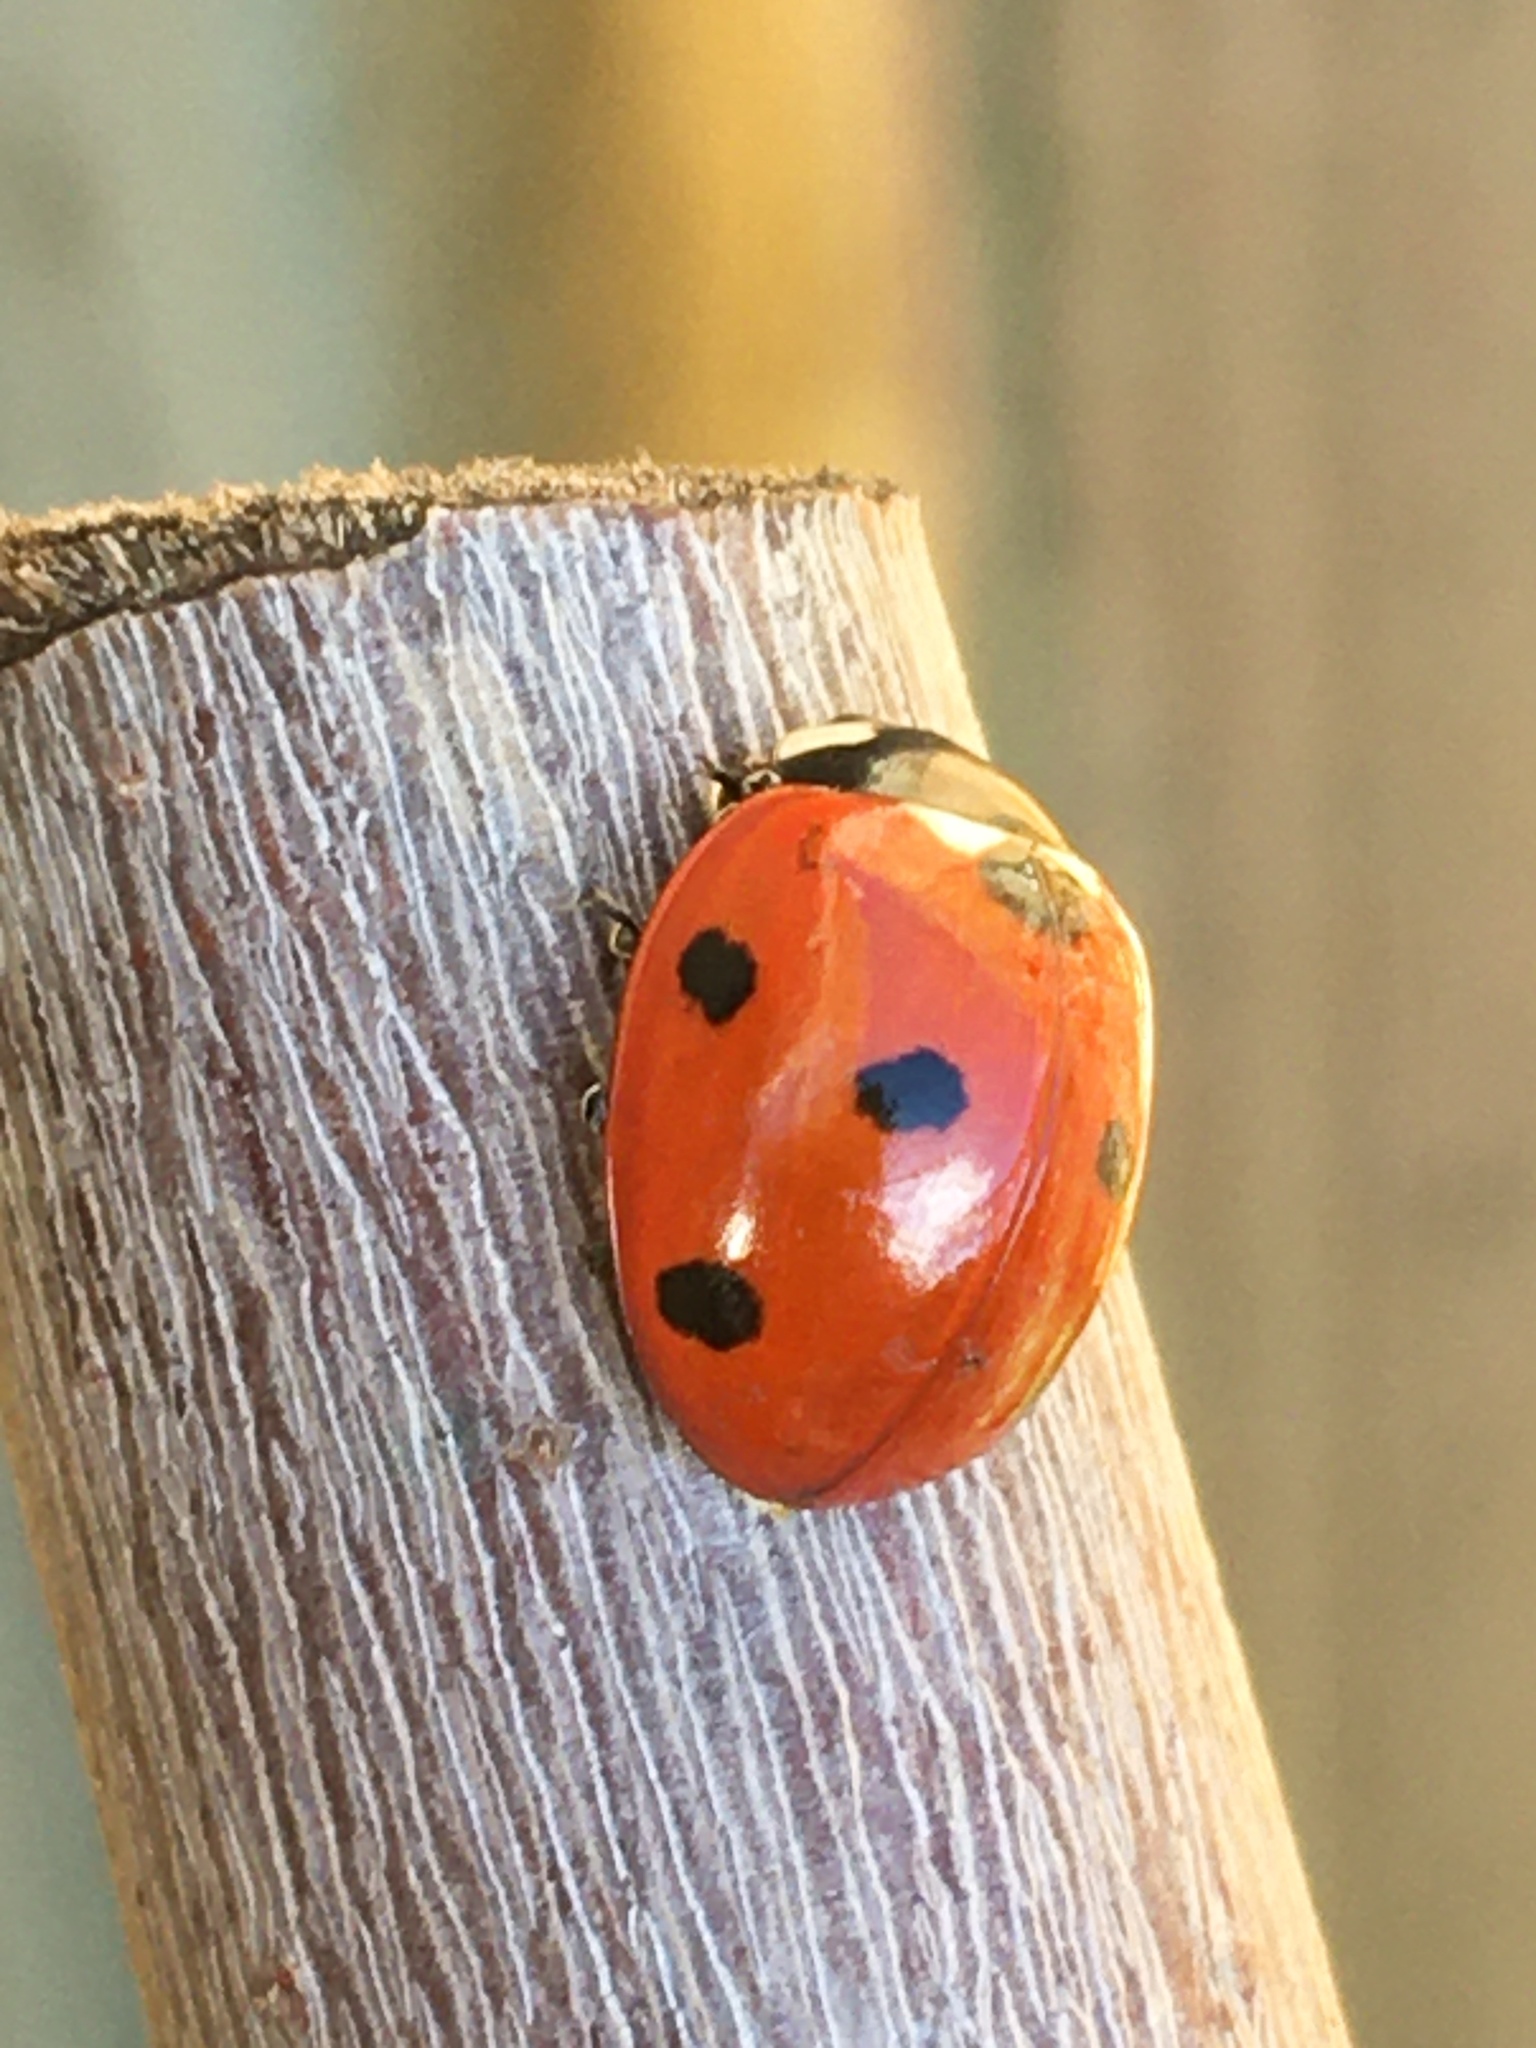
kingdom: Animalia
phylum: Arthropoda
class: Insecta
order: Coleoptera
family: Coccinellidae
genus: Coccinella
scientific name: Coccinella septempunctata
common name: Sevenspotted lady beetle
